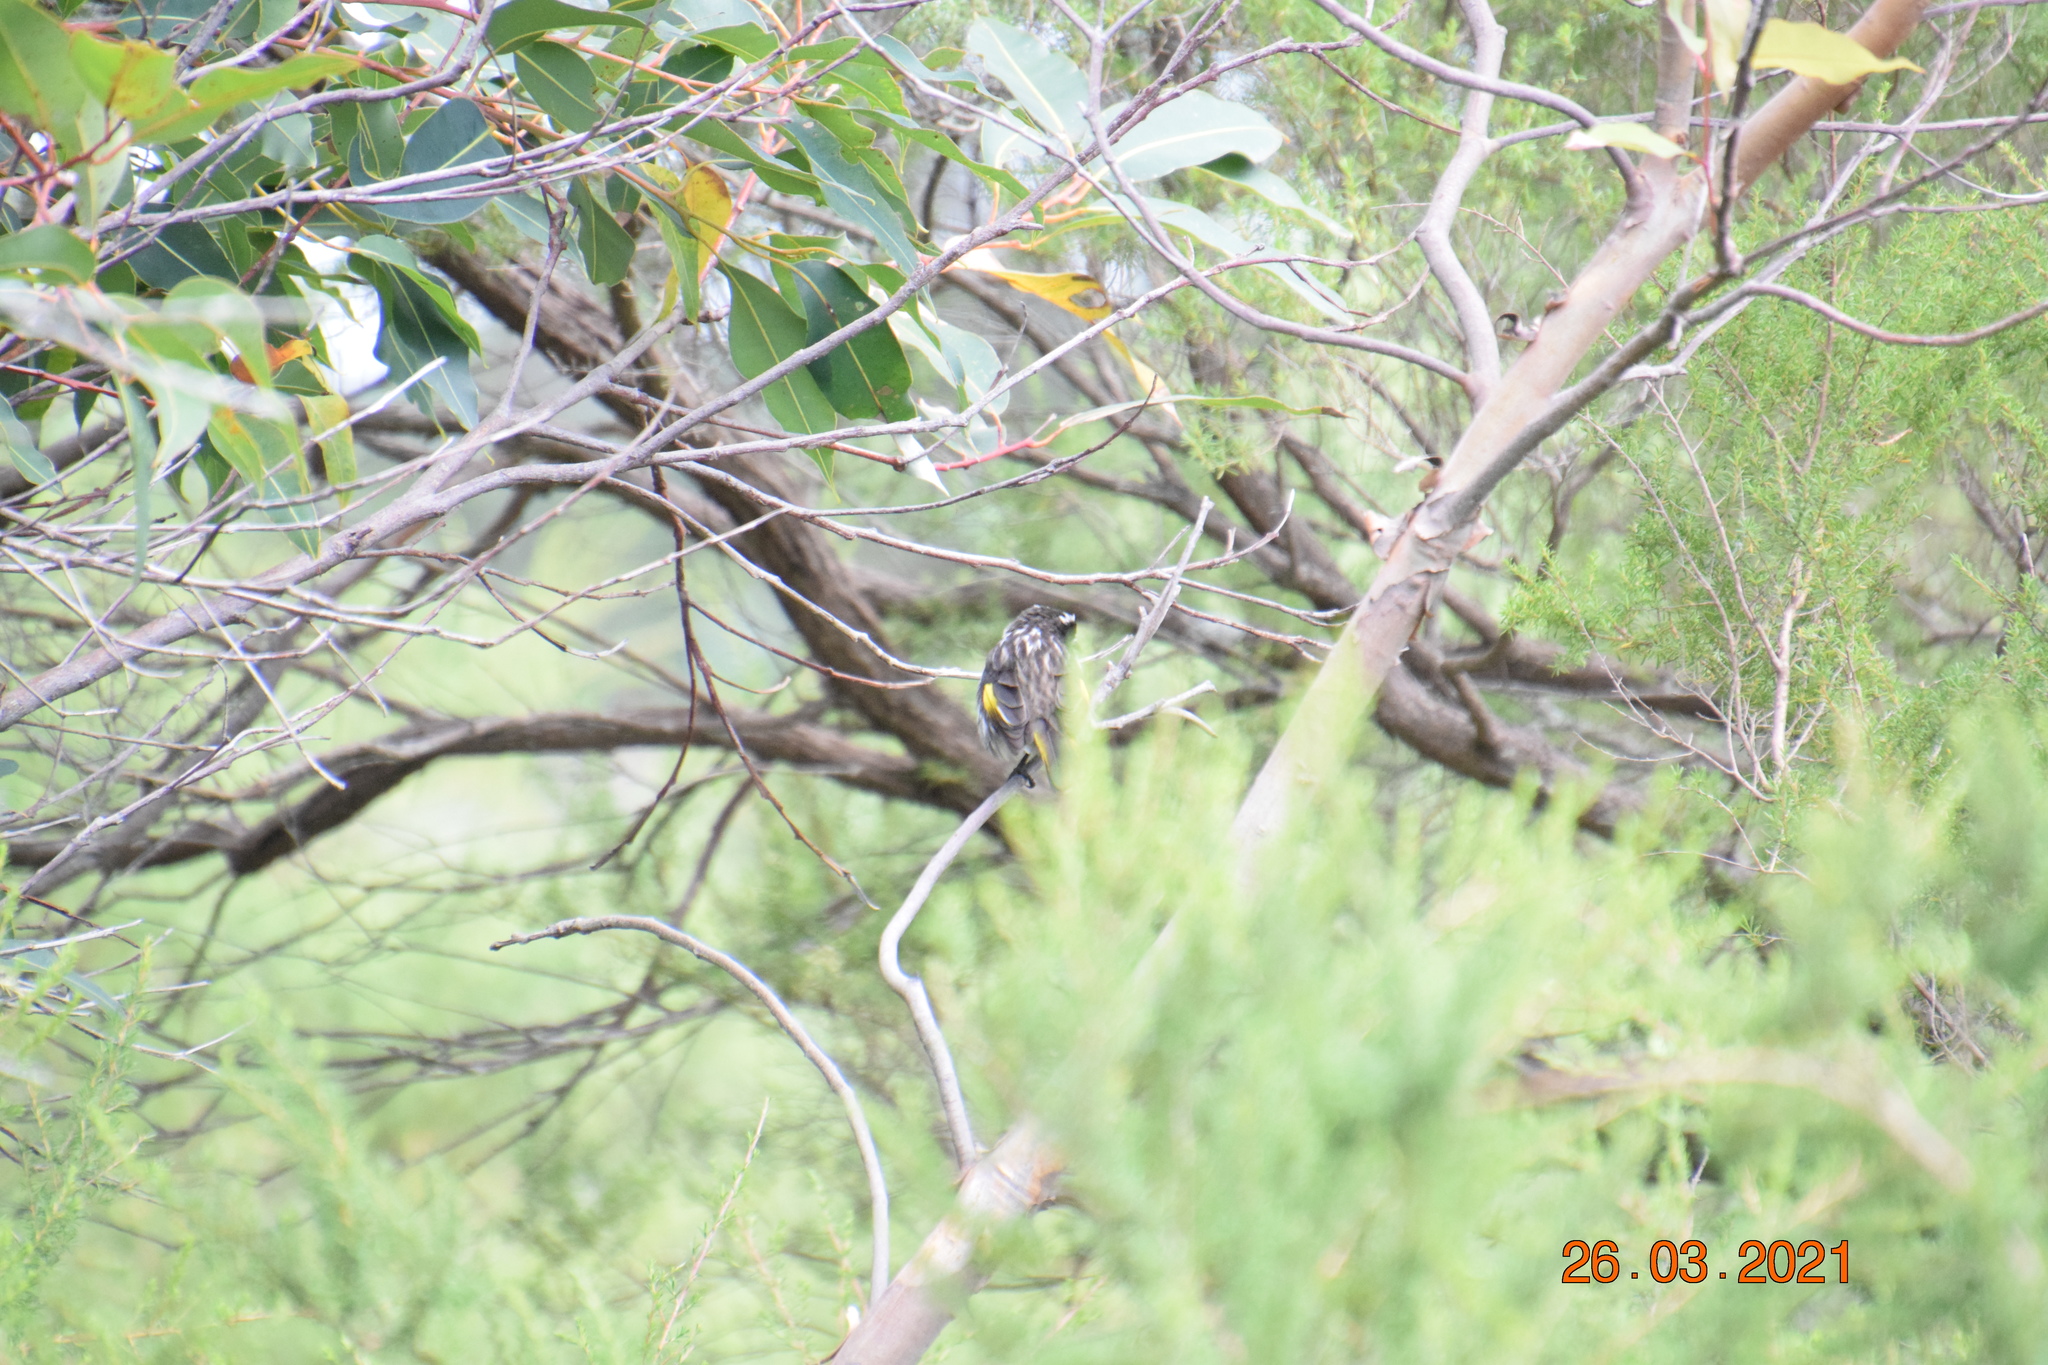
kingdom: Animalia
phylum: Chordata
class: Aves
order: Passeriformes
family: Meliphagidae
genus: Phylidonyris
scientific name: Phylidonyris novaehollandiae
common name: New holland honeyeater
